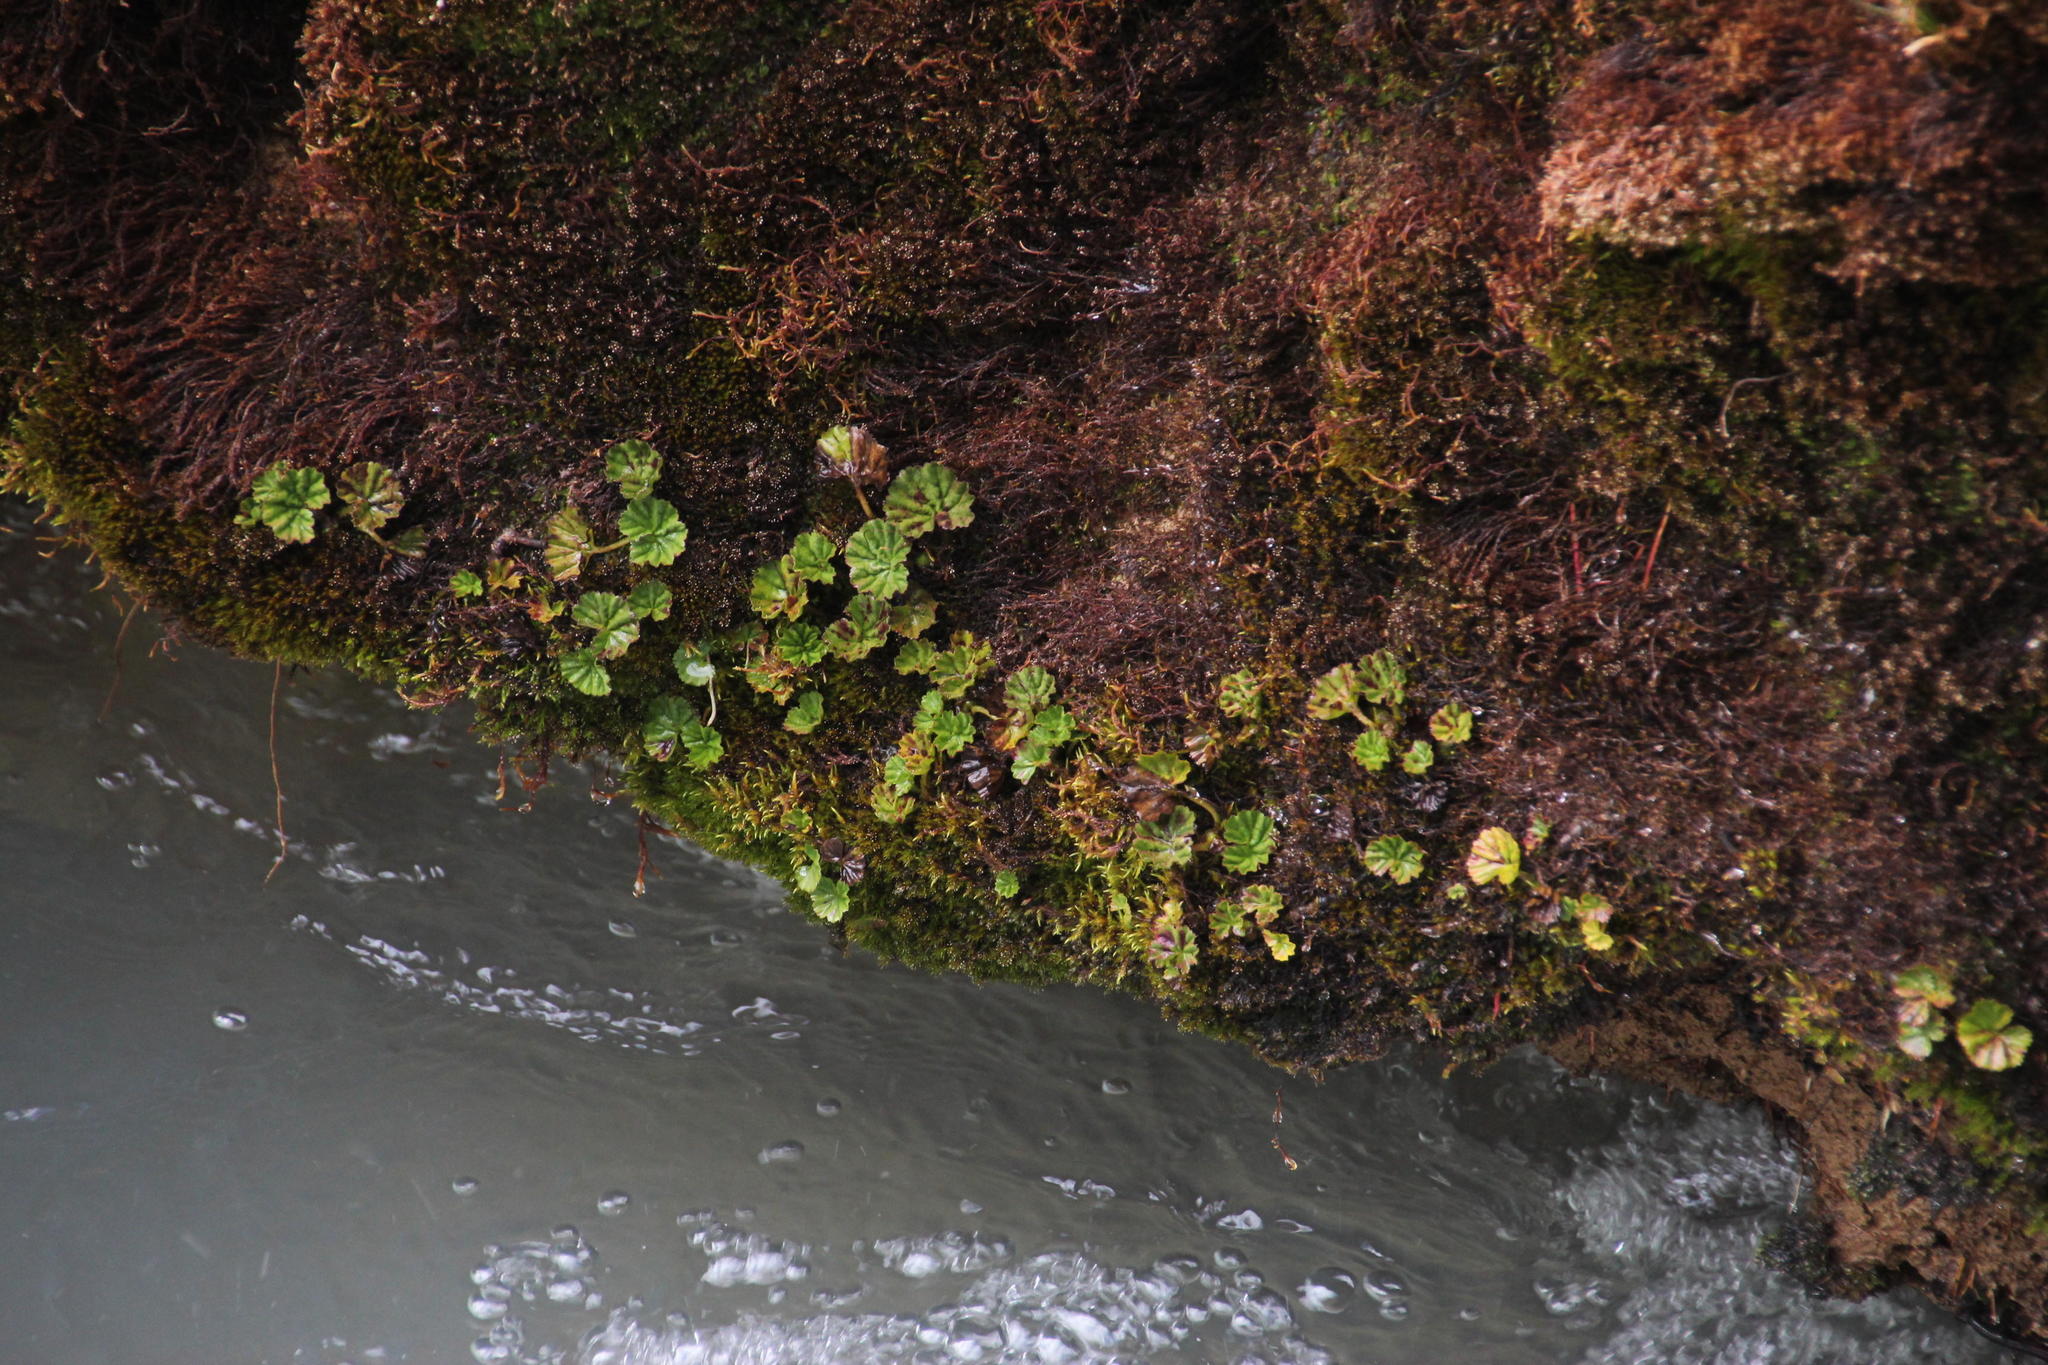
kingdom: Plantae
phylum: Tracheophyta
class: Magnoliopsida
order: Gunnerales
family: Gunneraceae
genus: Gunnera
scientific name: Gunnera magellanica
